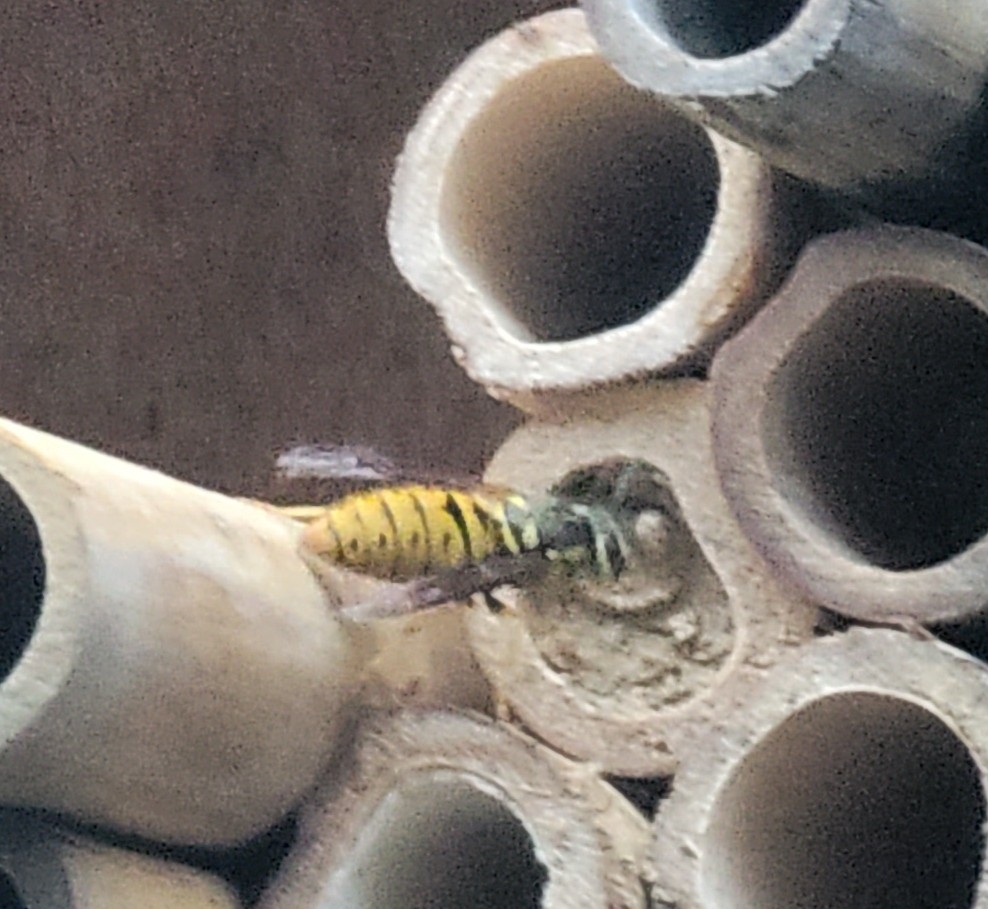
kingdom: Animalia
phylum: Arthropoda
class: Insecta
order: Hymenoptera
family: Vespidae
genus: Vespula
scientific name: Vespula maculifrons
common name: Eastern yellowjacket
